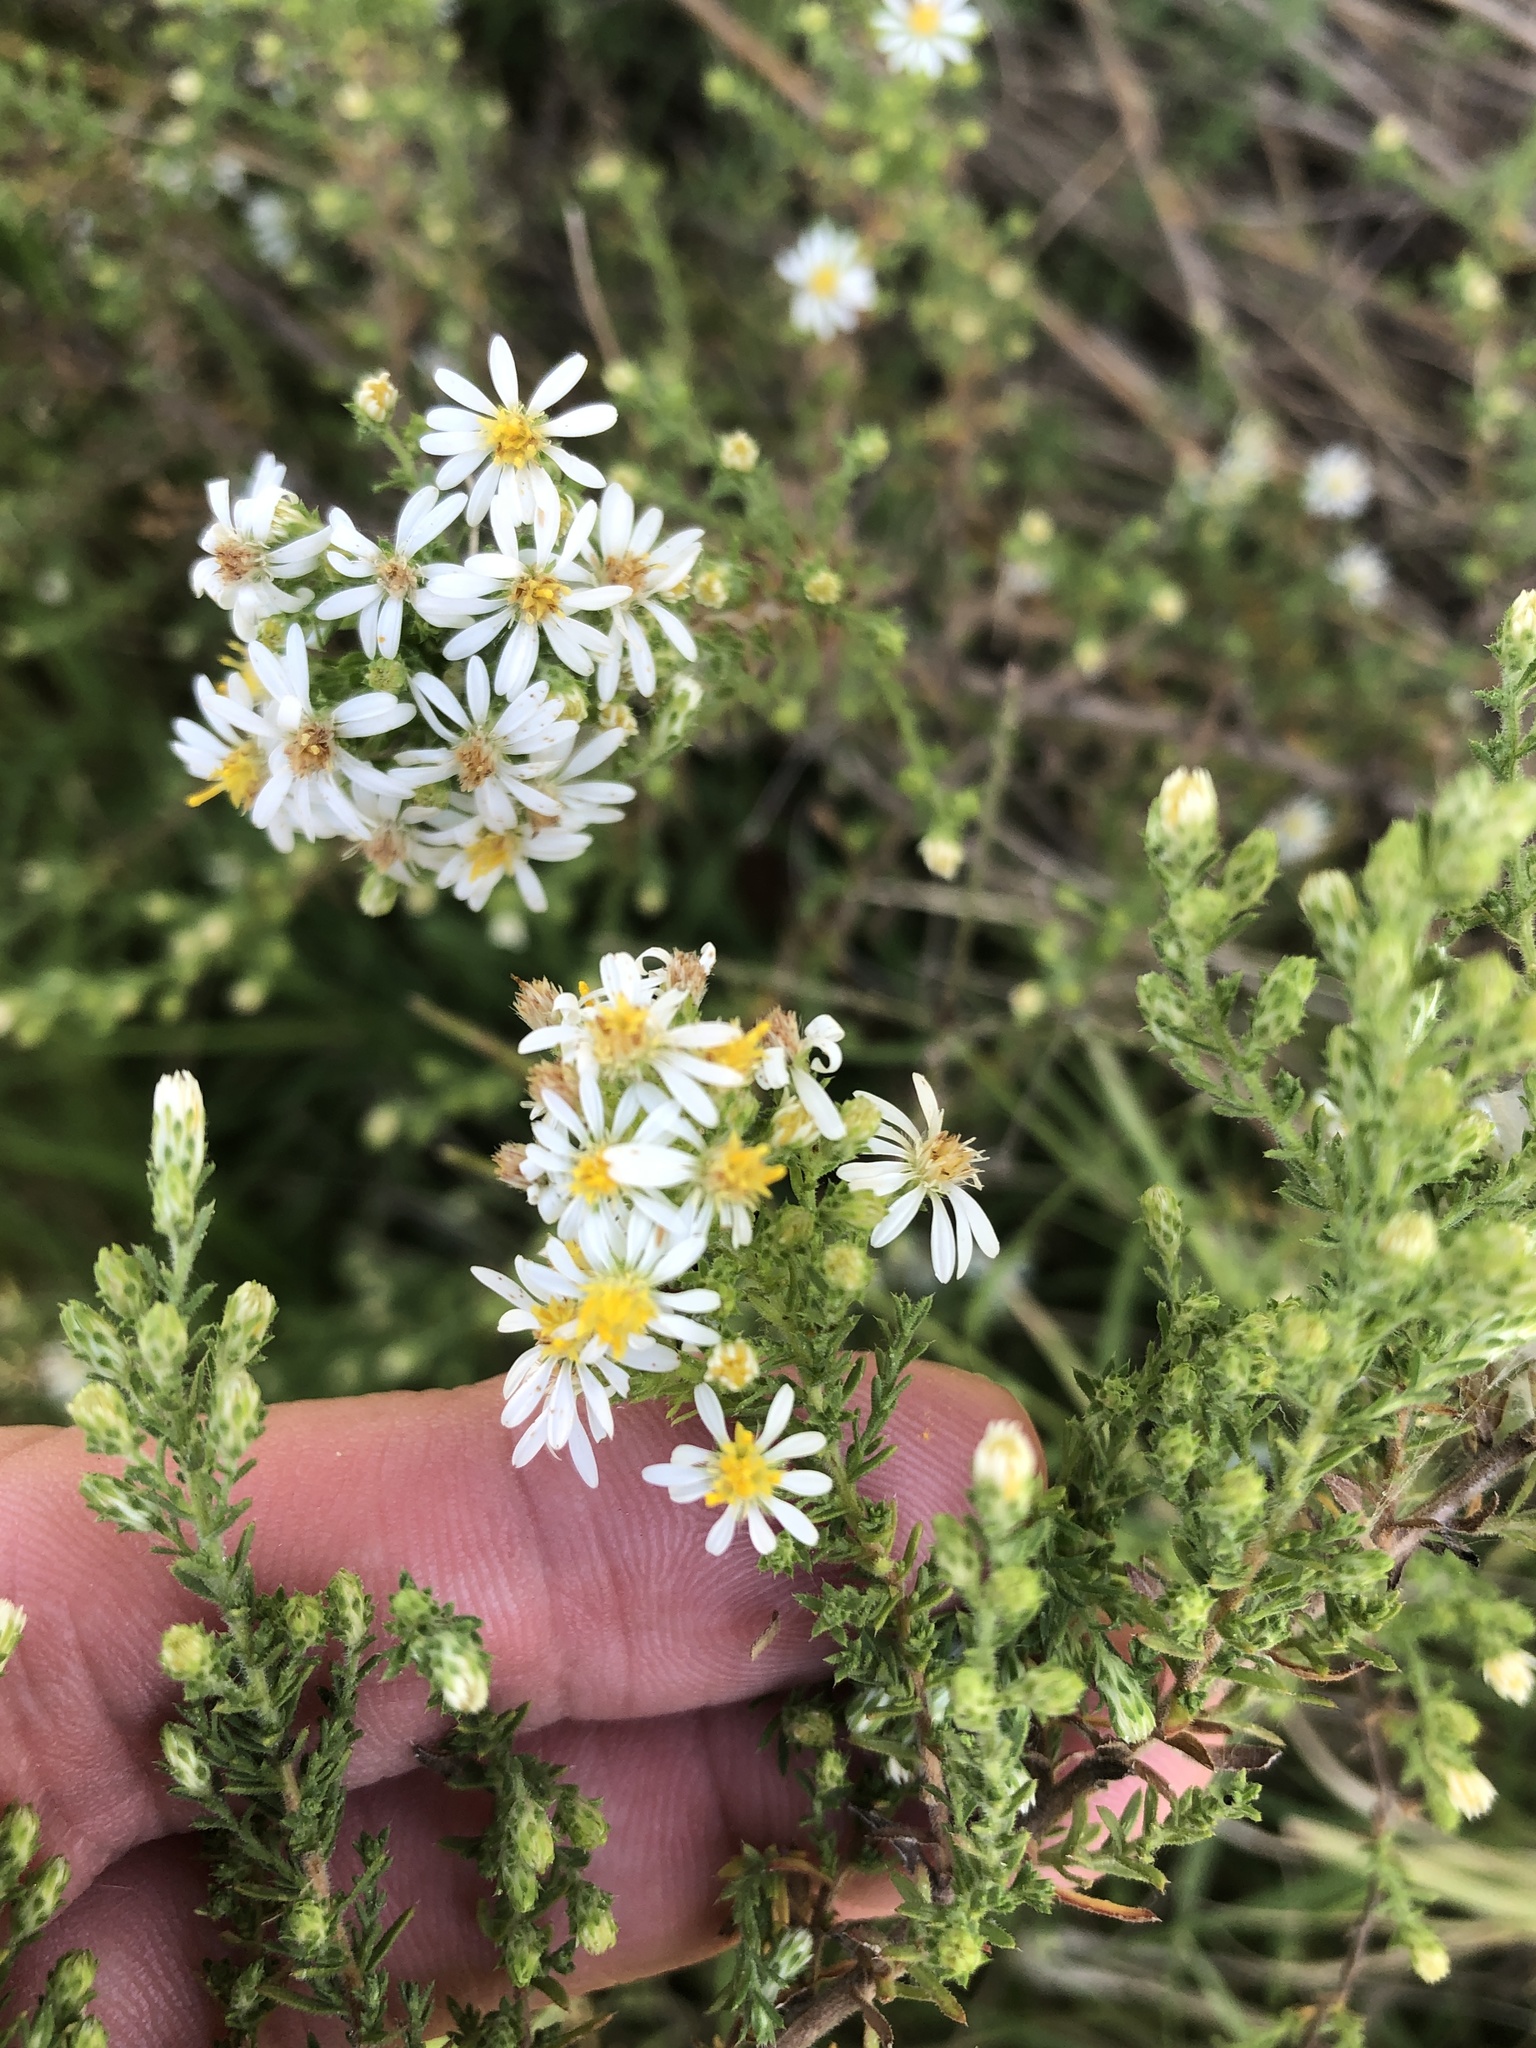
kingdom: Plantae
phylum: Tracheophyta
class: Magnoliopsida
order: Asterales
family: Asteraceae
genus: Symphyotrichum
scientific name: Symphyotrichum ericoides
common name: Heath aster
